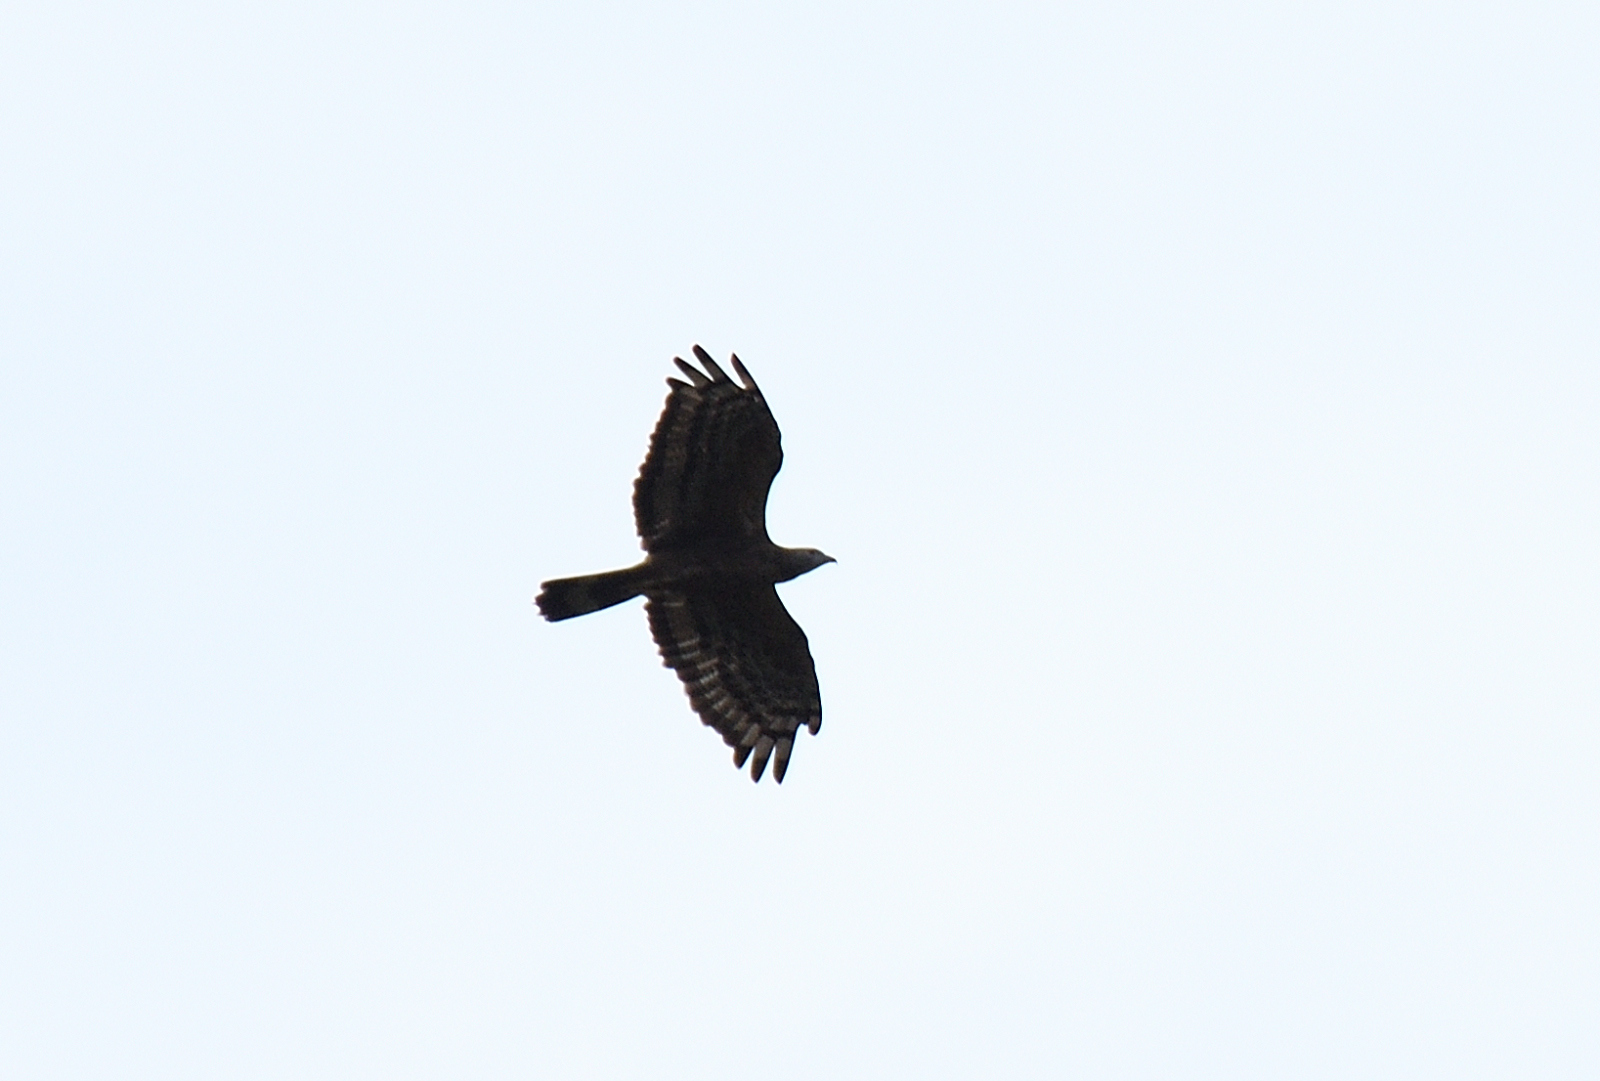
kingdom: Animalia
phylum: Chordata
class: Aves
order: Accipitriformes
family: Accipitridae
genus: Pernis
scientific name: Pernis ptilorhynchus
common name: Crested honey buzzard
